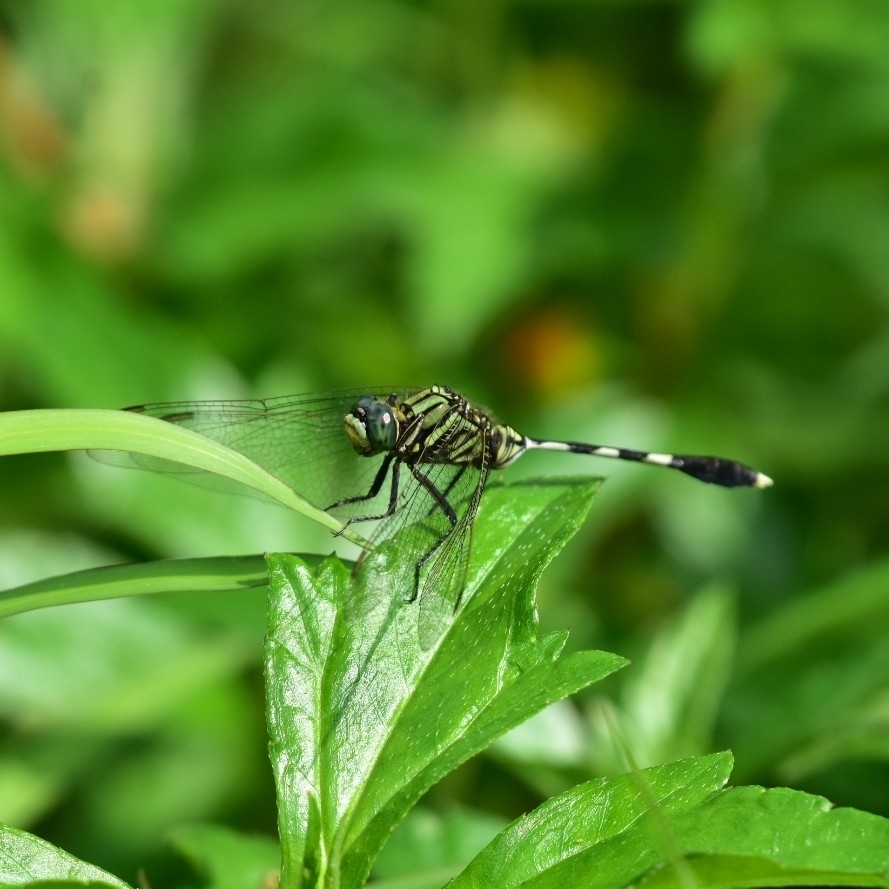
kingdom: Animalia
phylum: Arthropoda
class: Insecta
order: Odonata
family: Libellulidae
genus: Orthetrum
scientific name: Orthetrum sabina
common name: Slender skimmer
